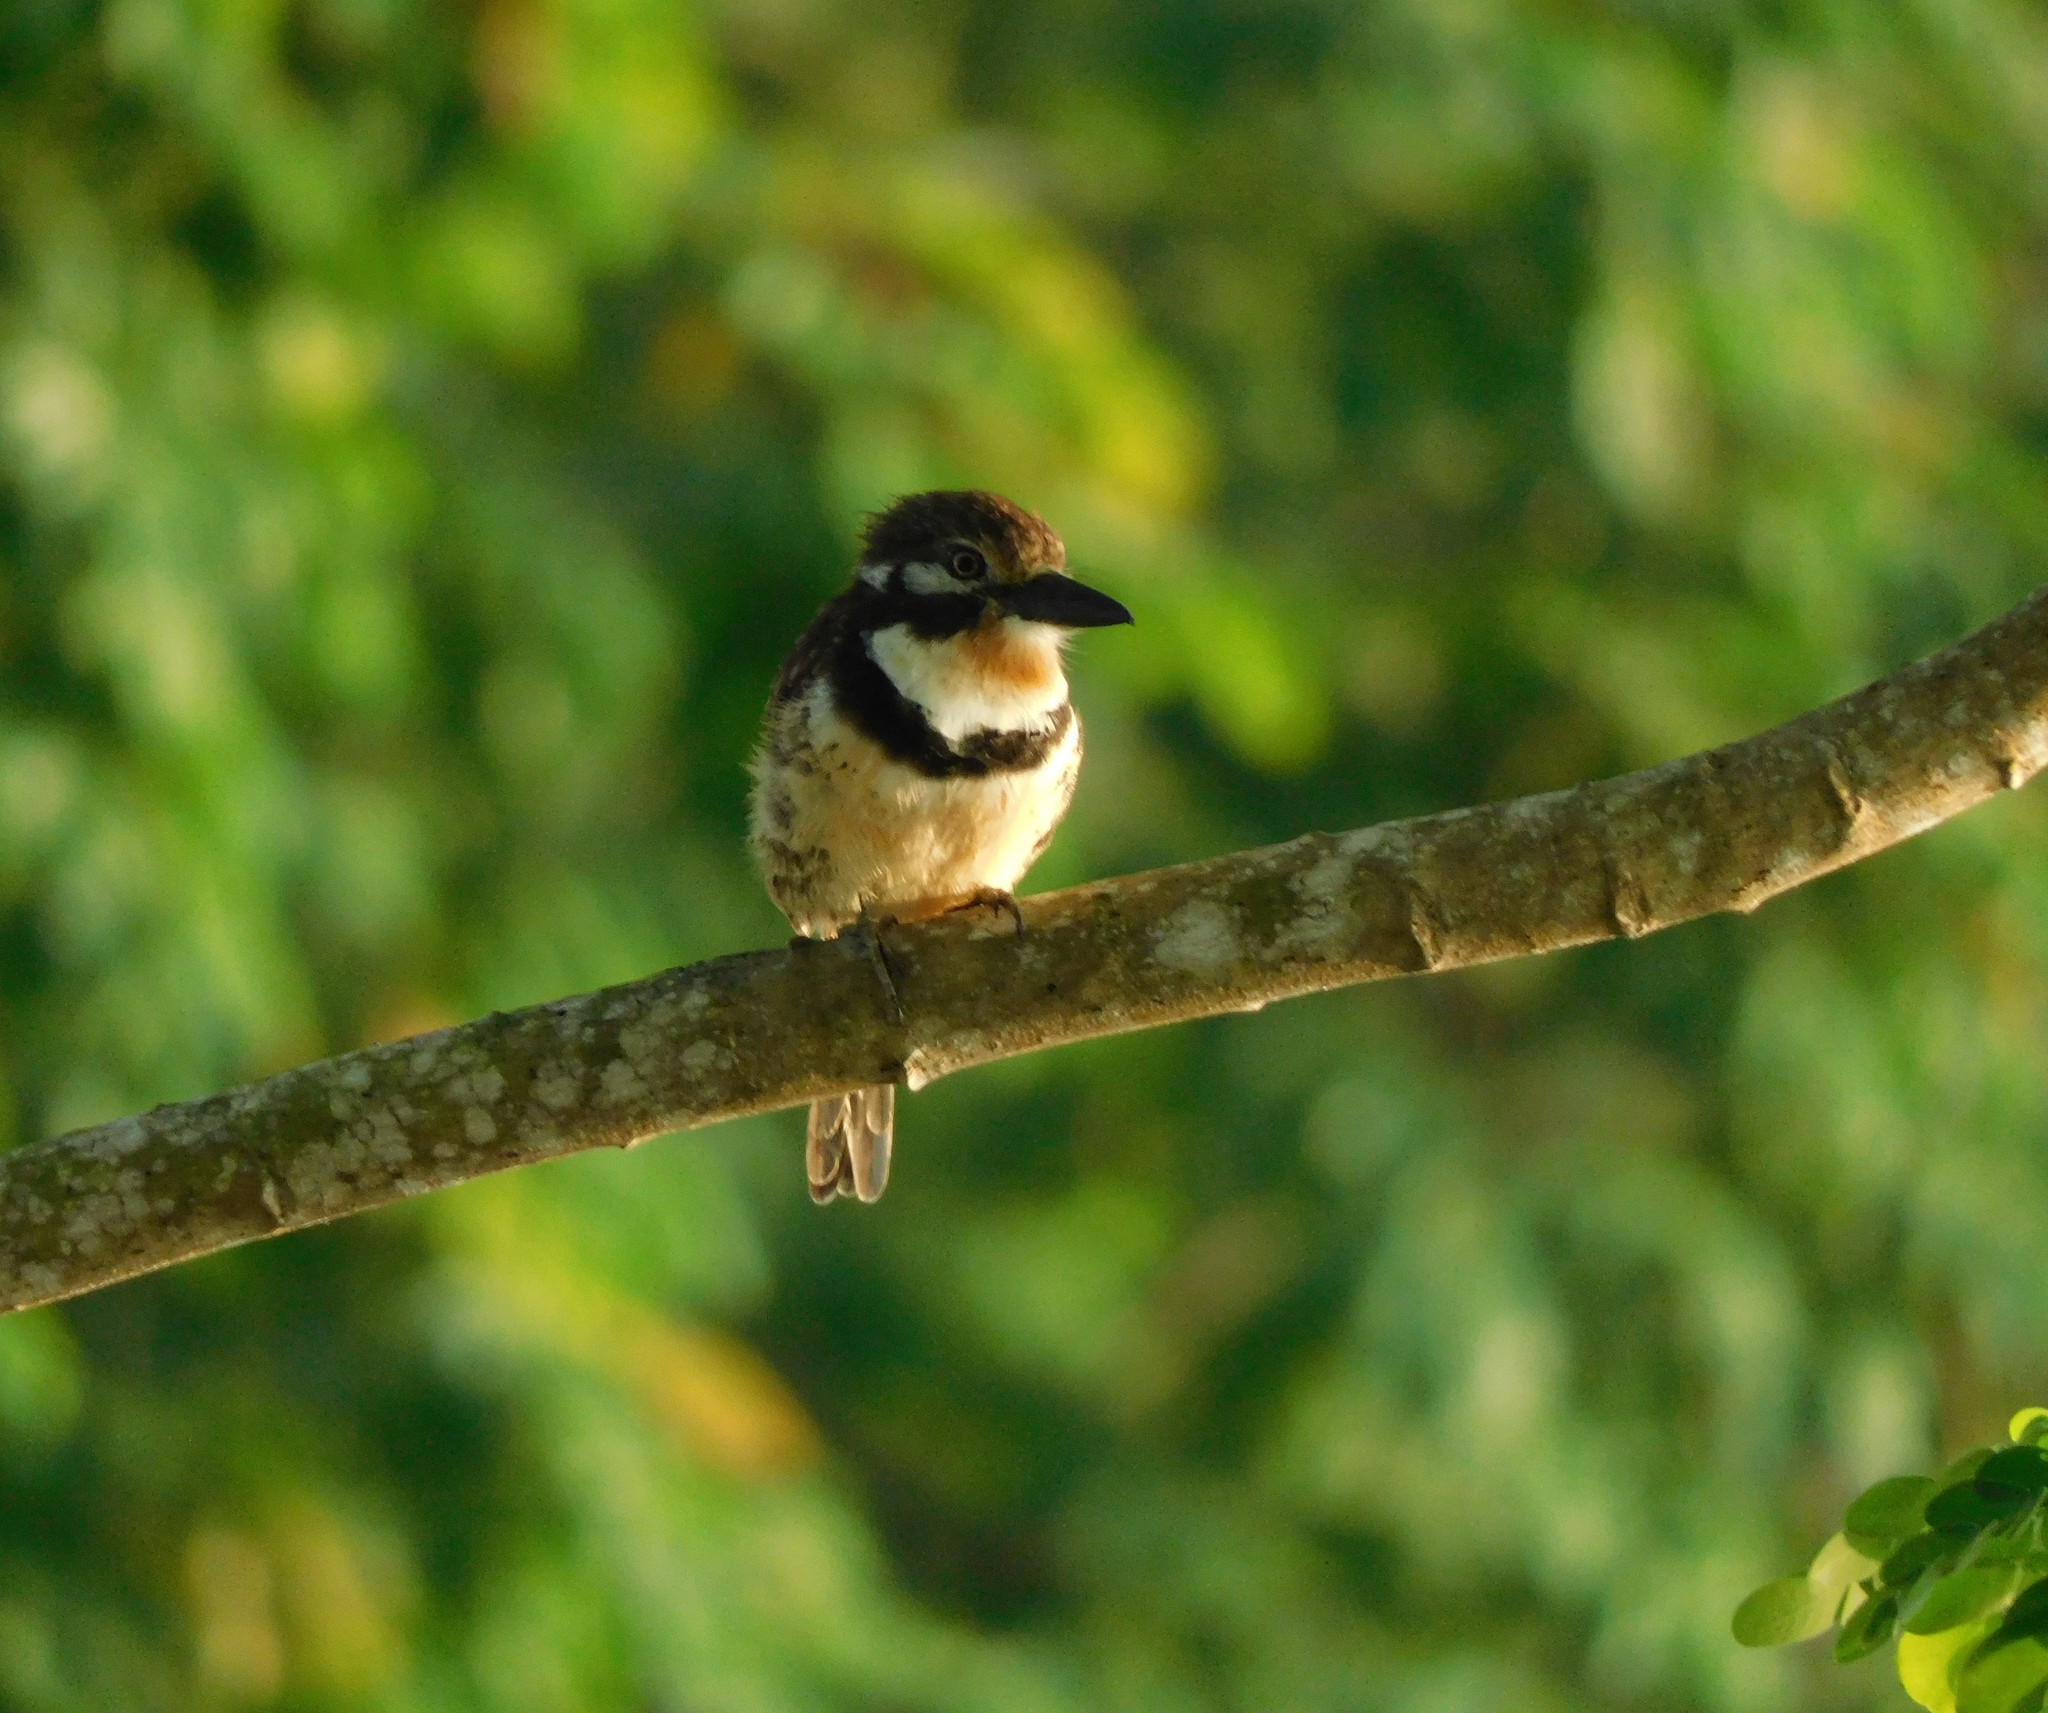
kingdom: Animalia
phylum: Chordata
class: Aves
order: Piciformes
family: Bucconidae
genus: Hypnelus
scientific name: Hypnelus ruficollis
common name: Russet-throated puffbird
